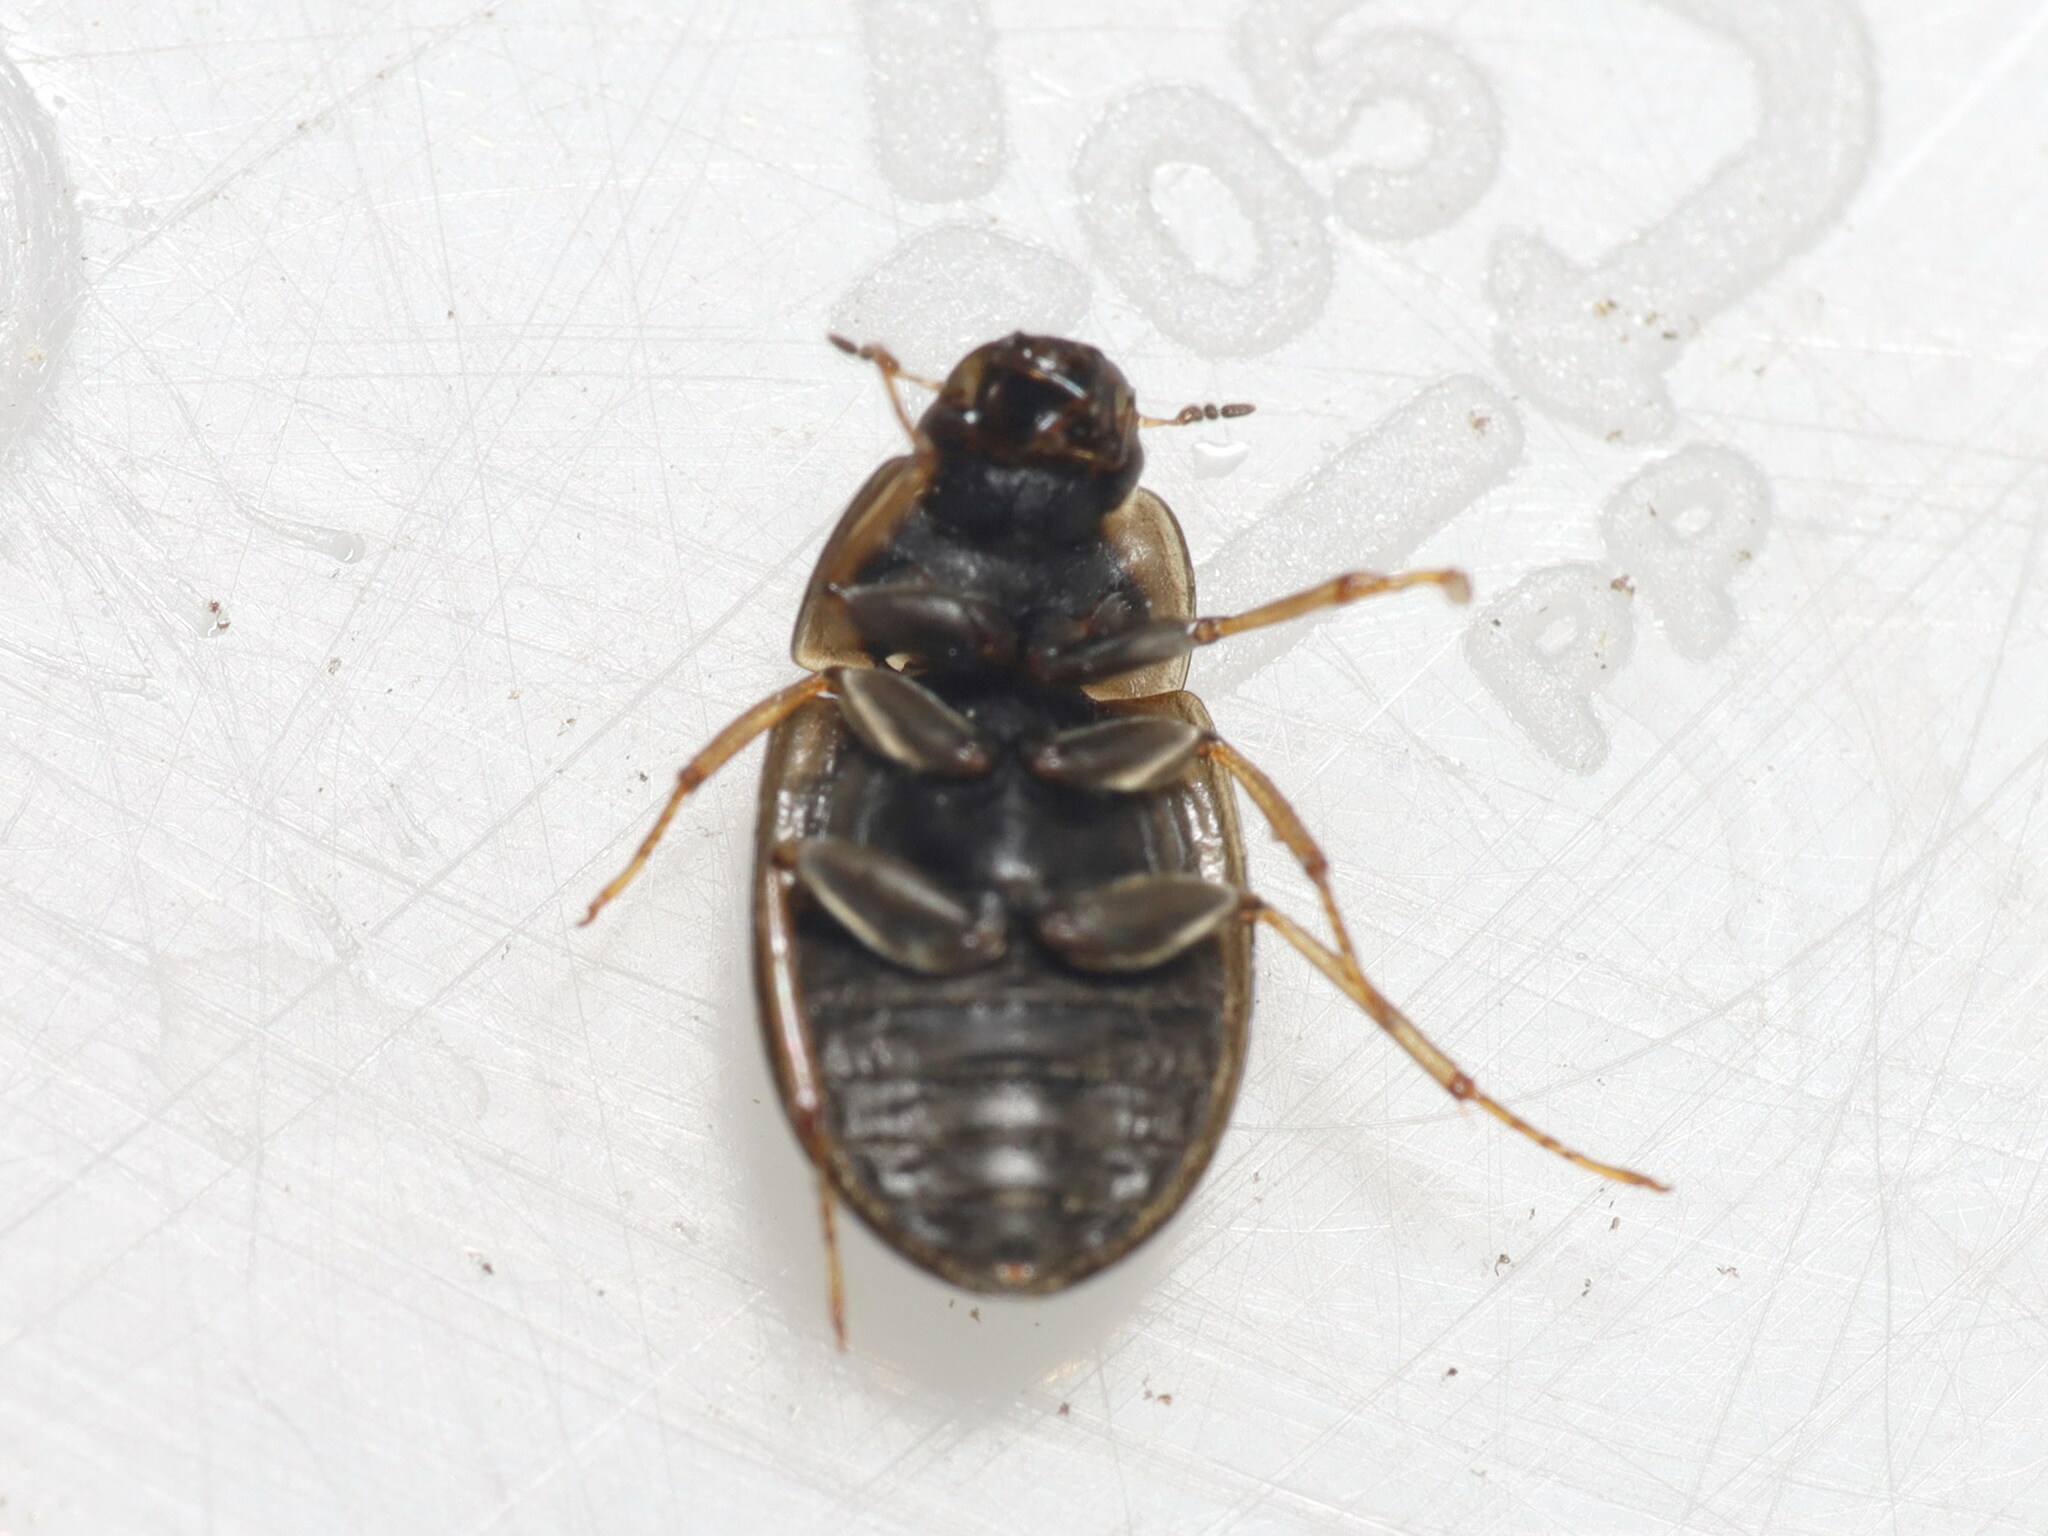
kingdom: Animalia
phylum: Arthropoda
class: Insecta
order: Coleoptera
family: Hydrophilidae
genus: Helochares
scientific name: Helochares punctatus
